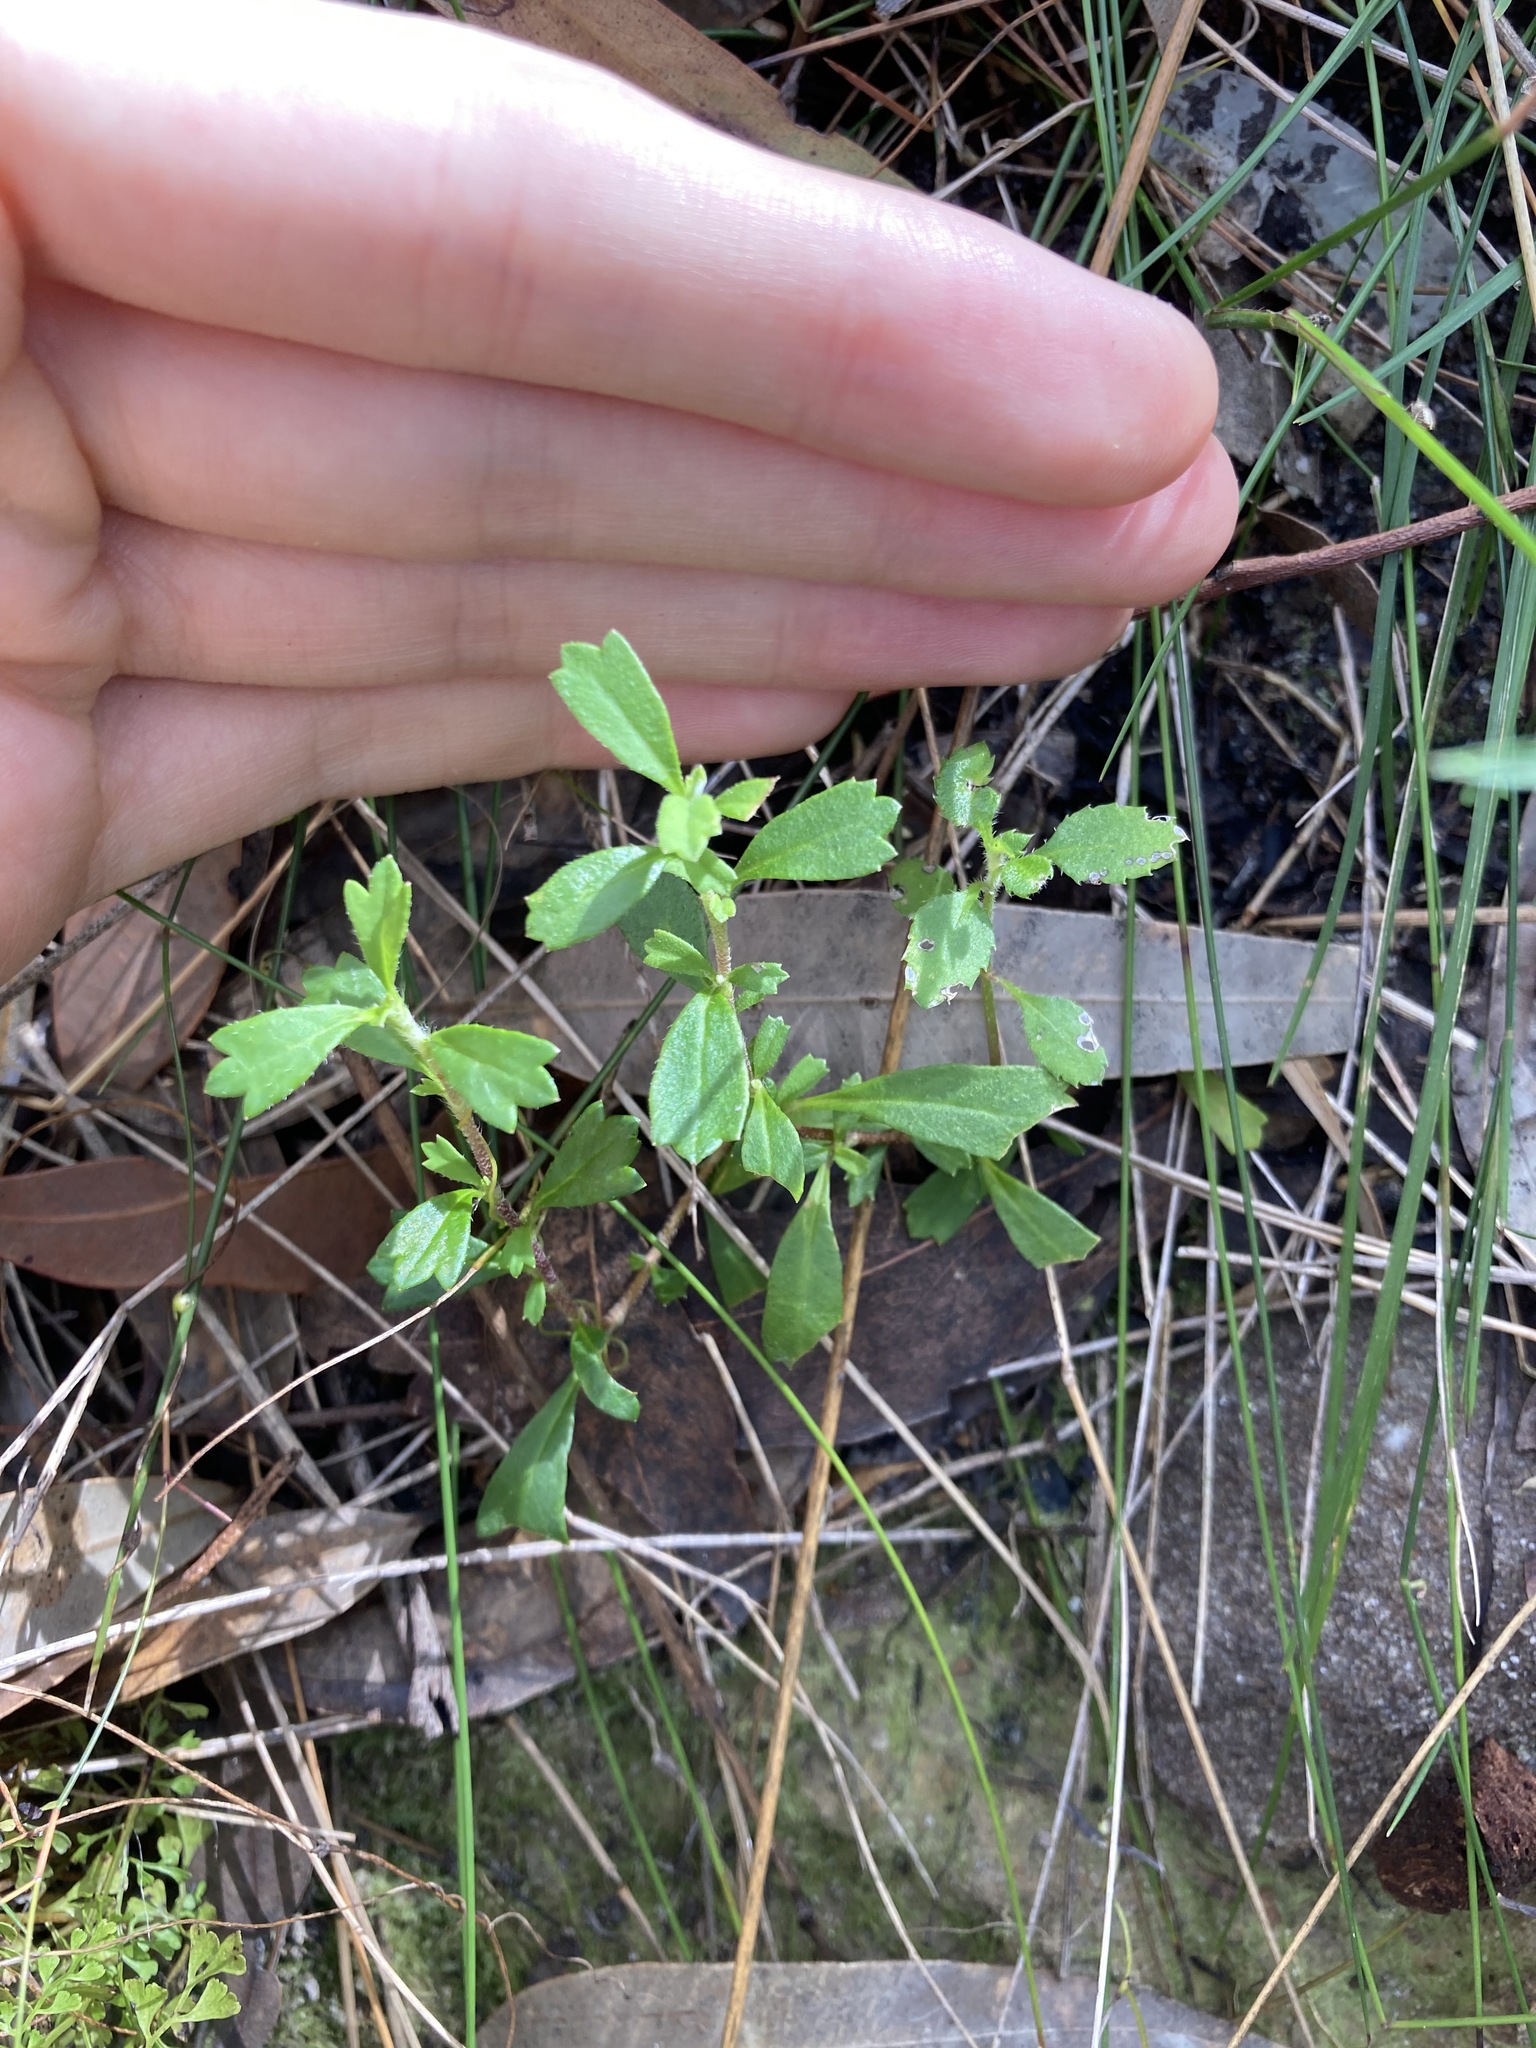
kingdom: Plantae
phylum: Tracheophyta
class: Magnoliopsida
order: Apiales
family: Apiaceae
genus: Xanthosia
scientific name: Xanthosia tridentata
